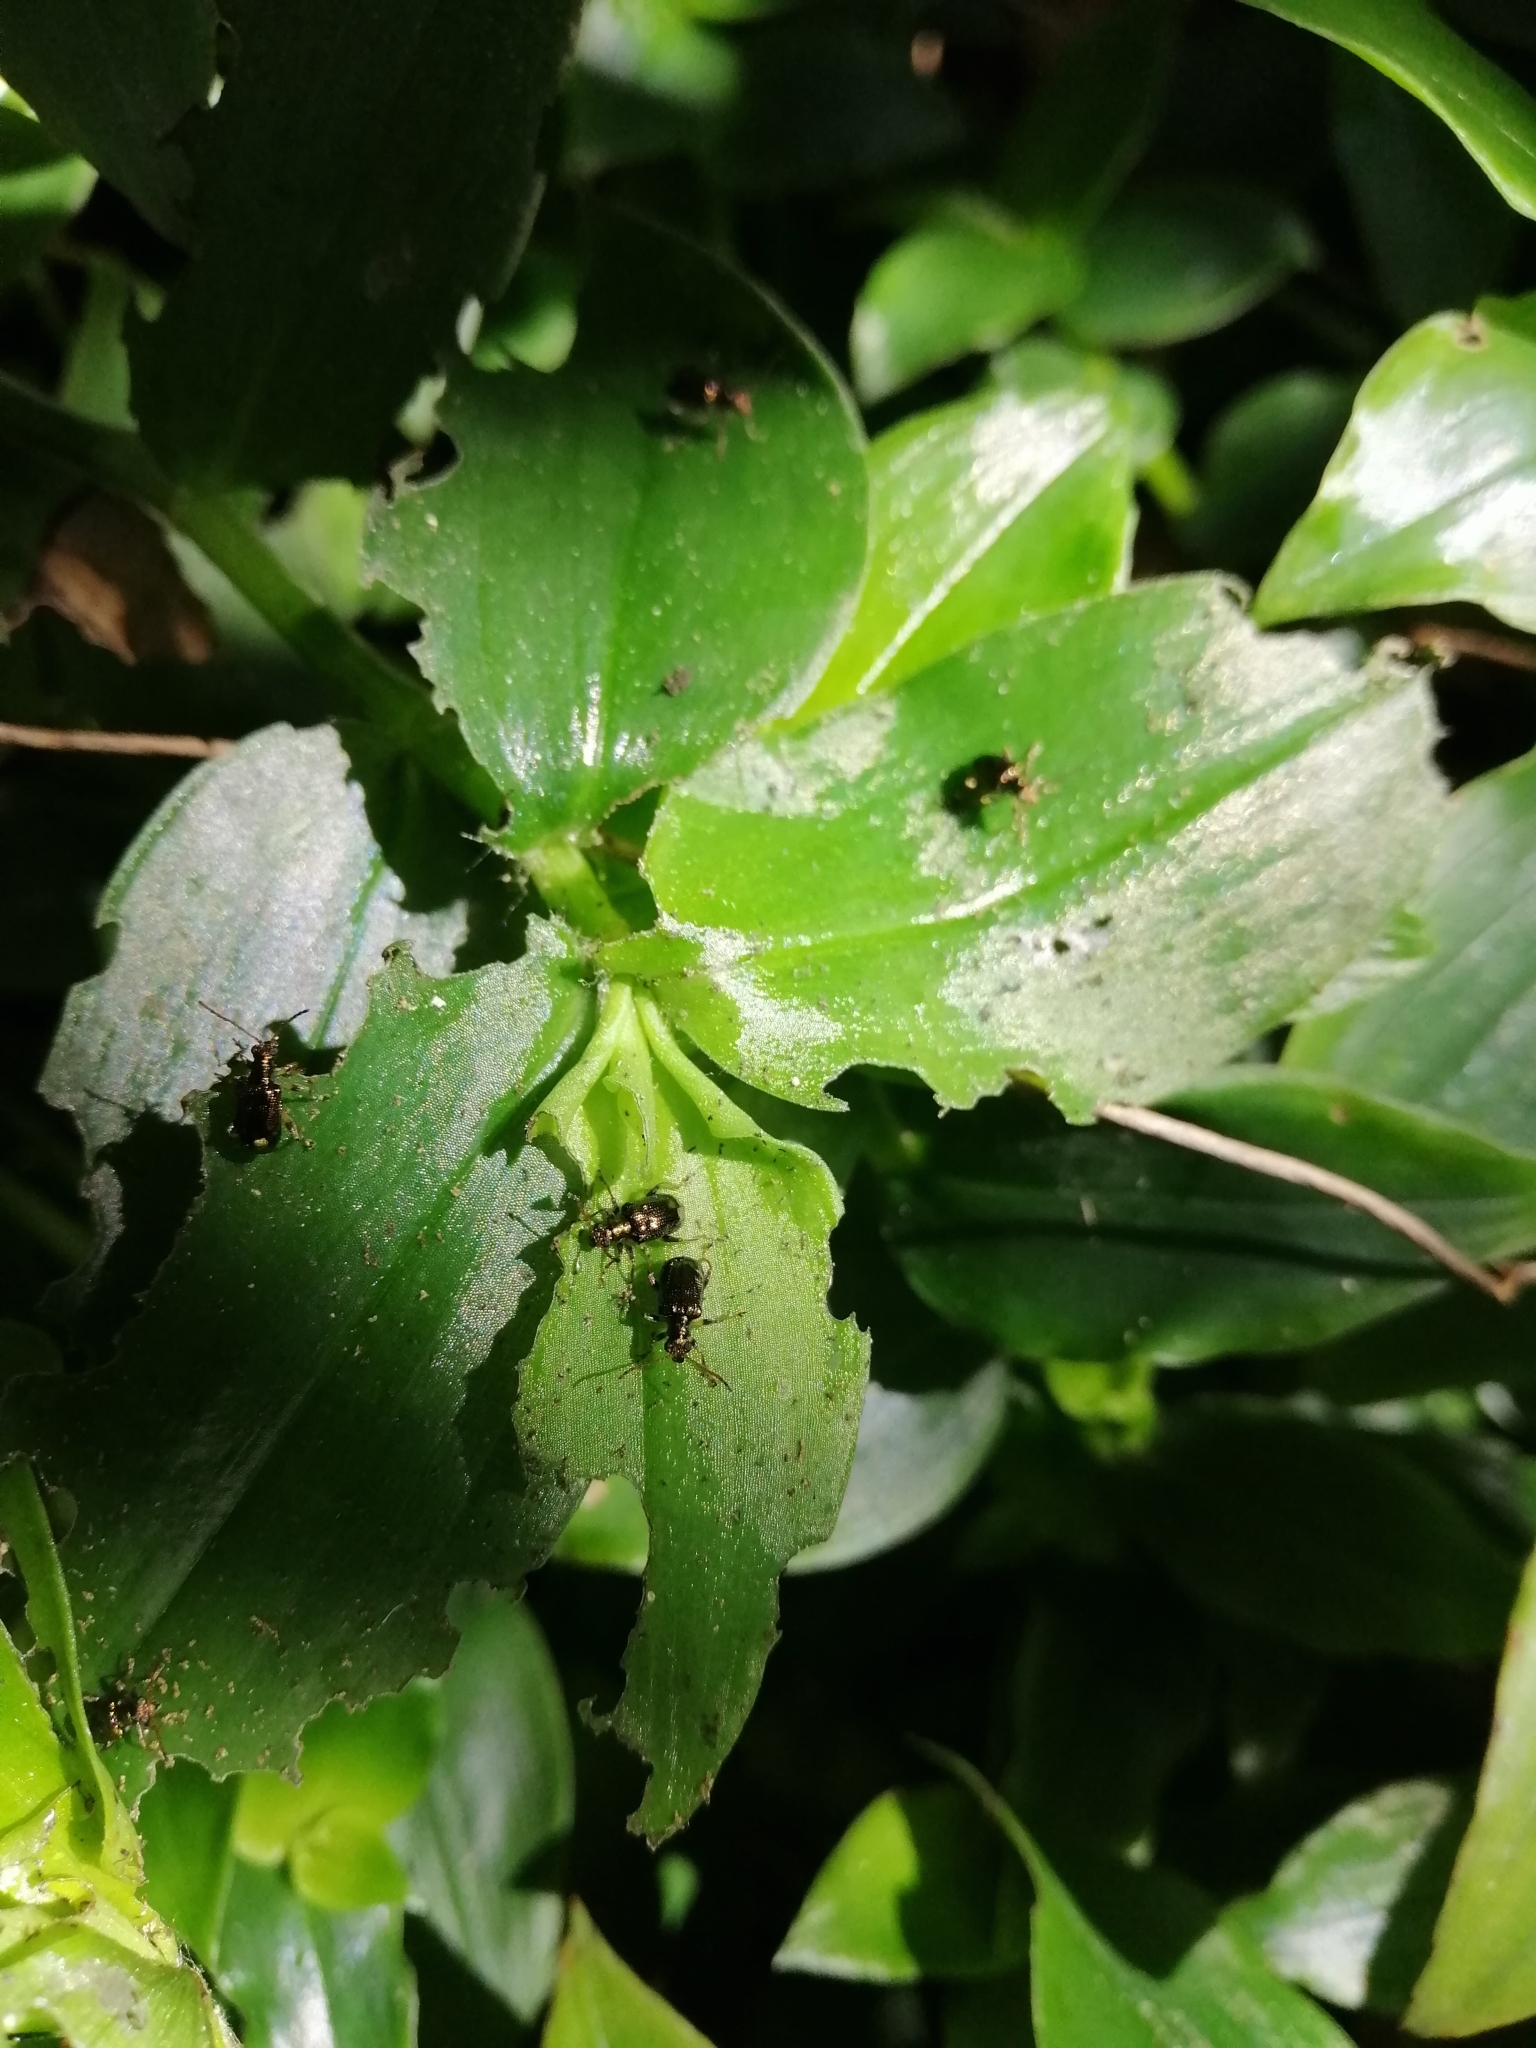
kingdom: Animalia
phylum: Arthropoda
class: Insecta
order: Coleoptera
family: Chrysomelidae
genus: Neolema
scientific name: Neolema ogloblini
